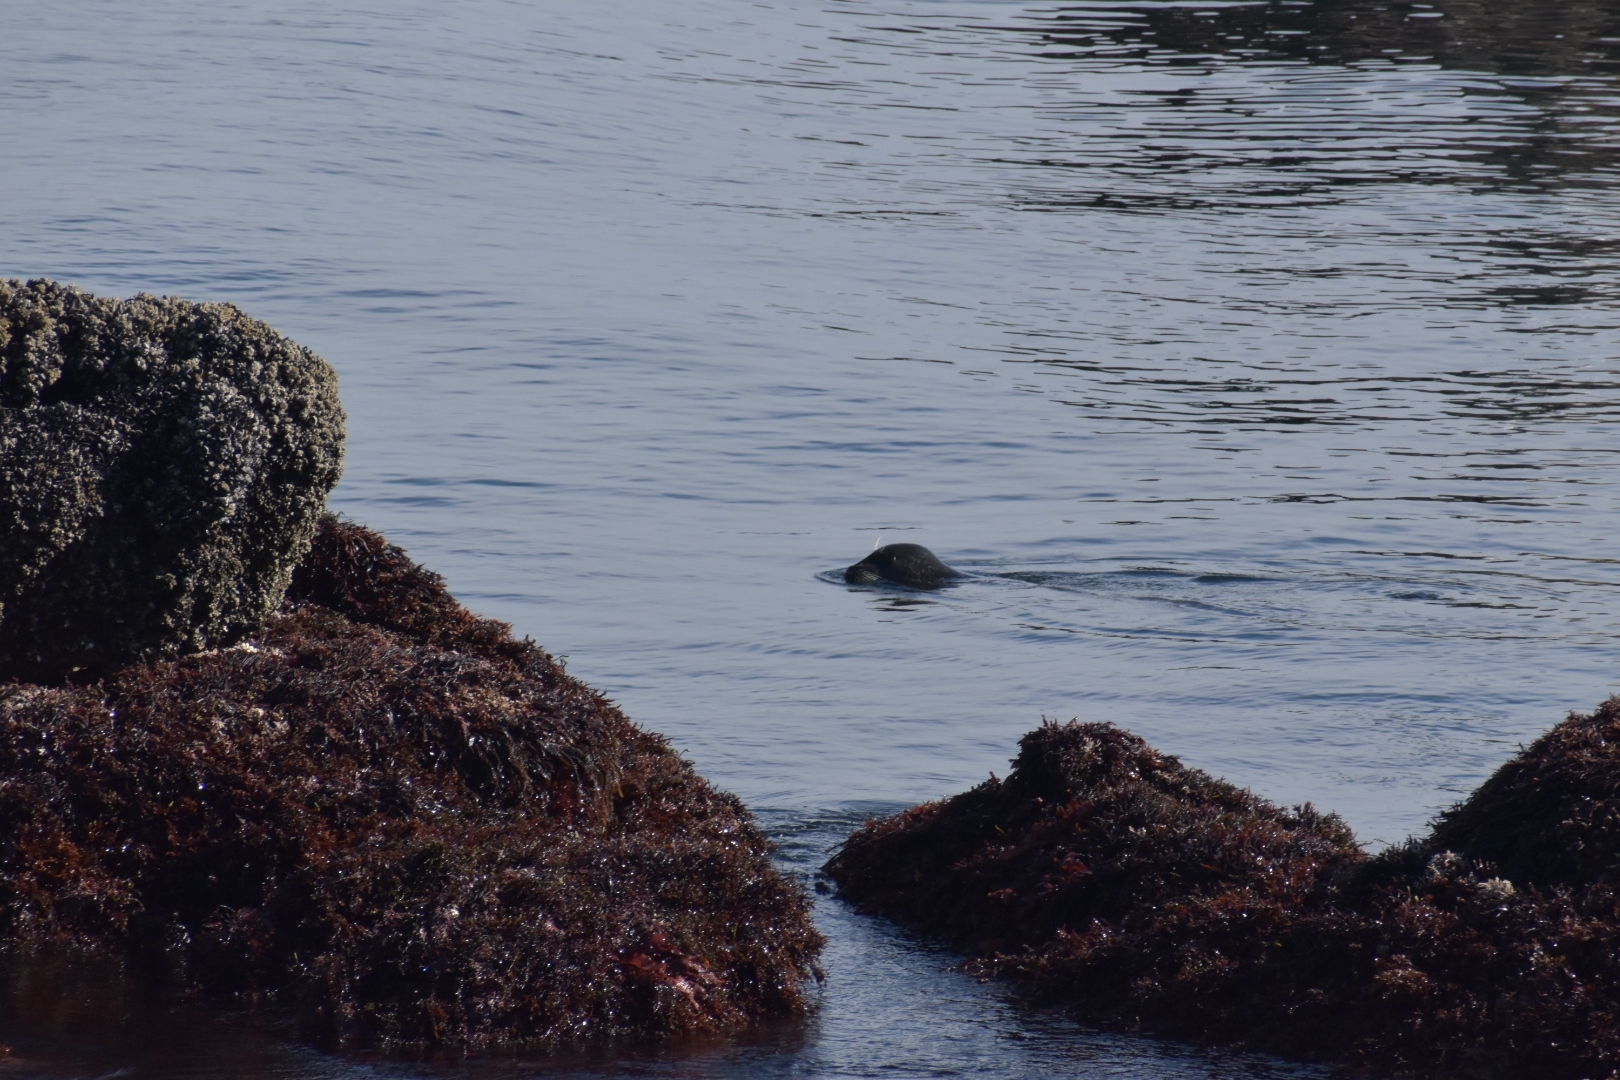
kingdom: Animalia
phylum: Chordata
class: Mammalia
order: Carnivora
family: Phocidae
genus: Phoca
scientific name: Phoca vitulina
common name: Harbor seal
